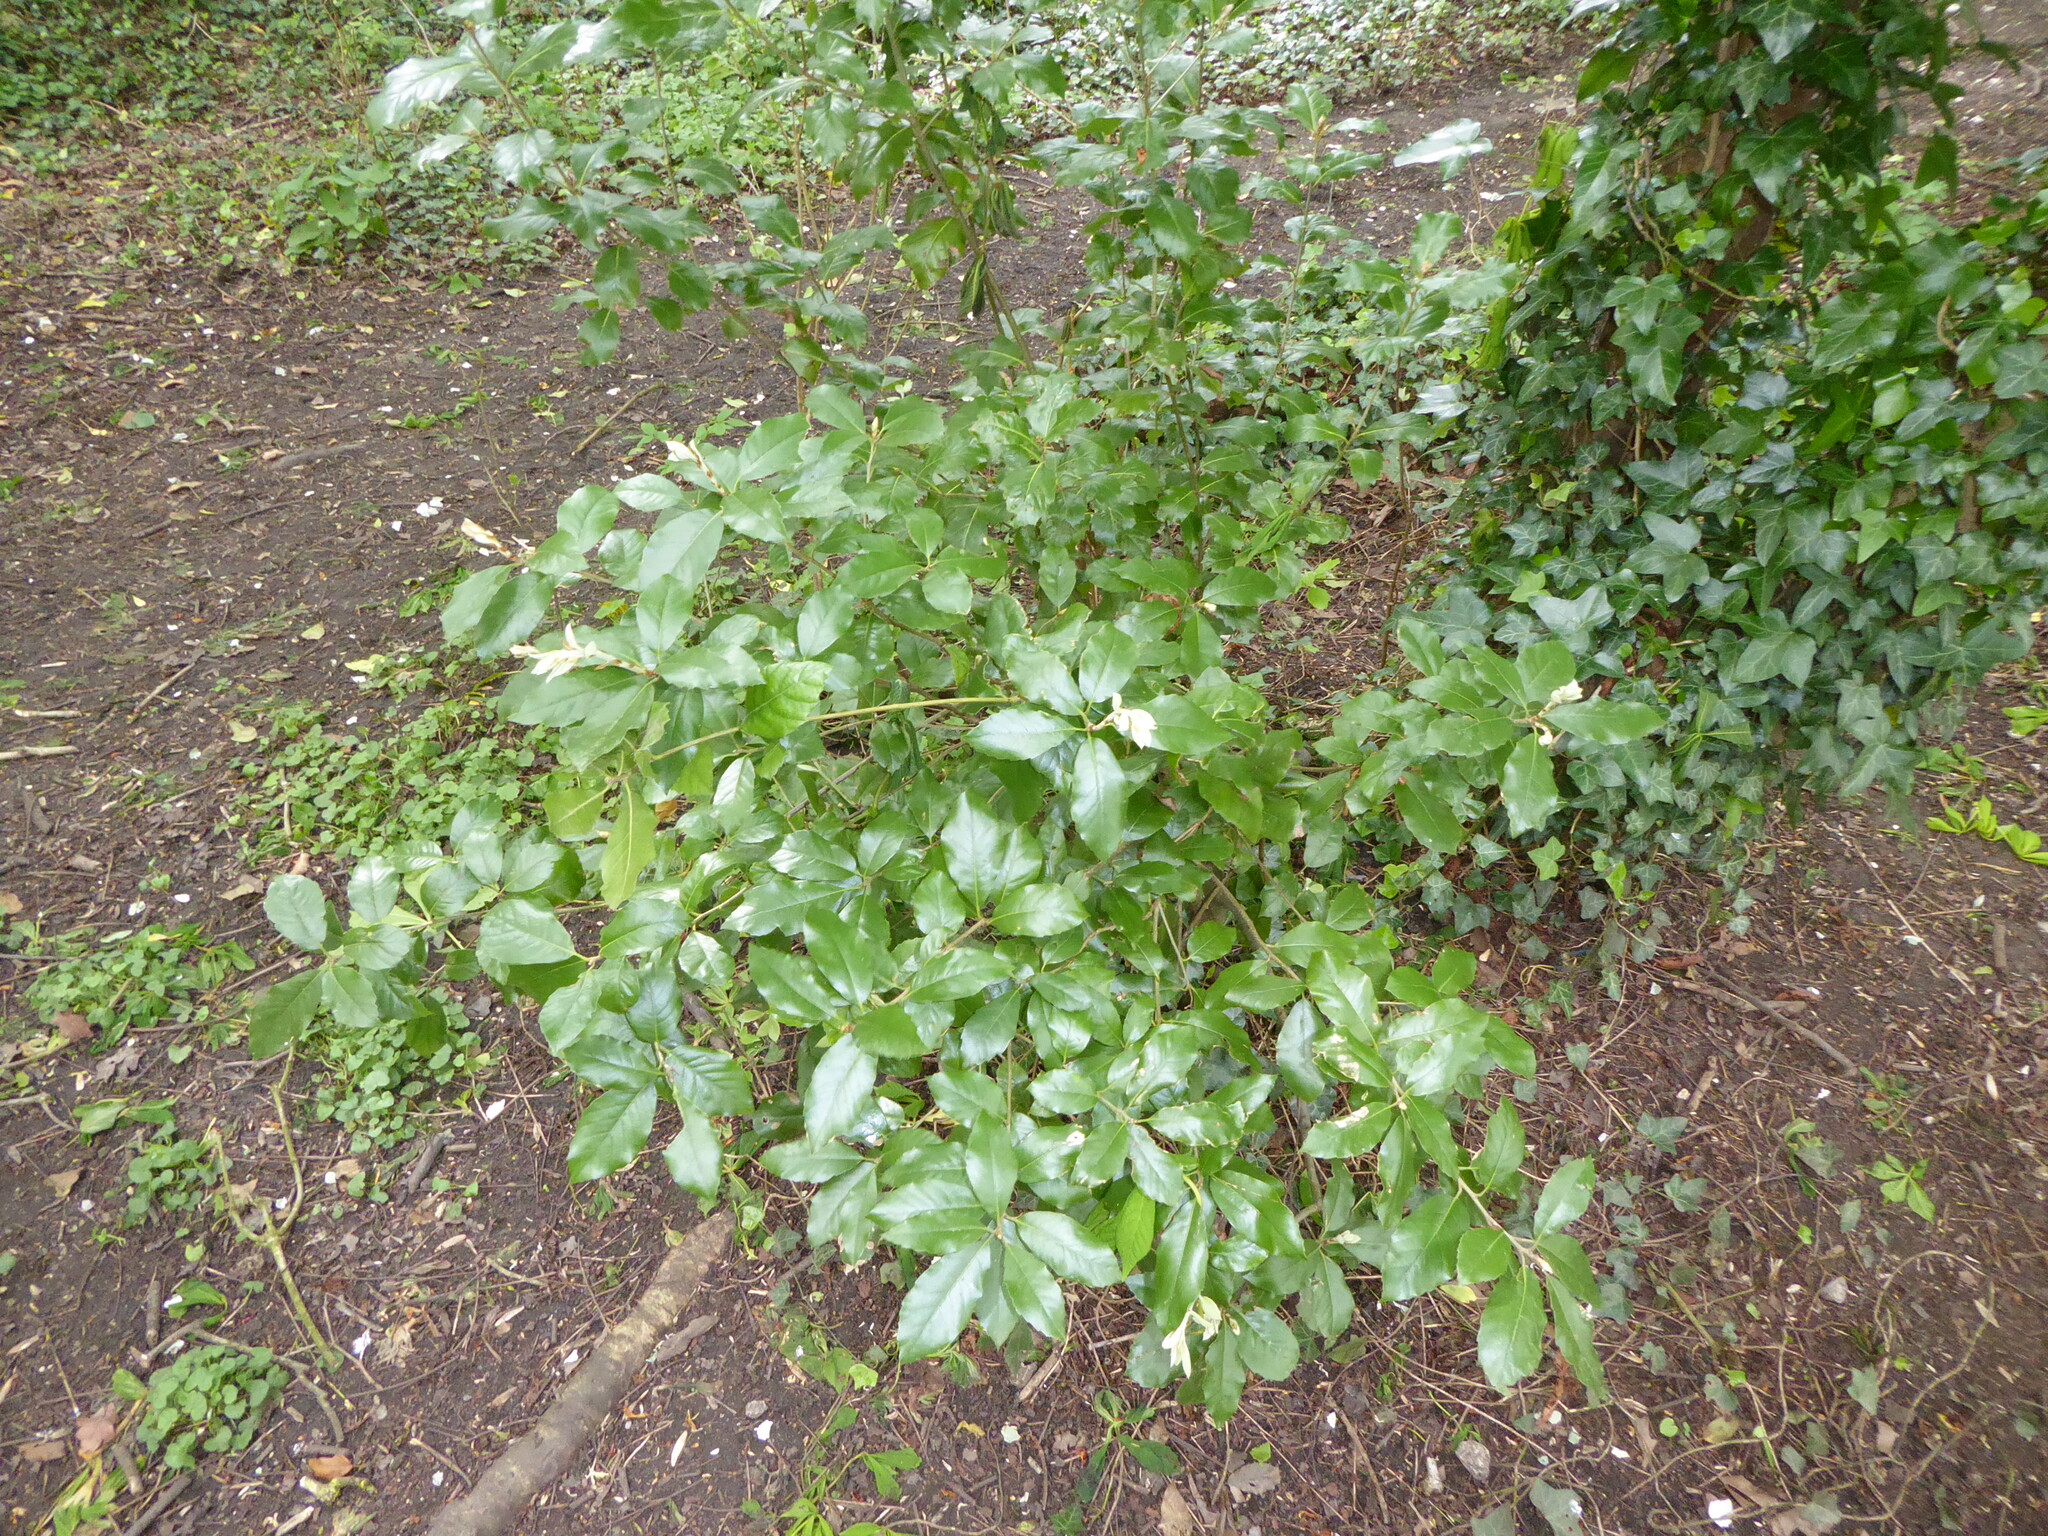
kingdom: Plantae
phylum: Tracheophyta
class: Magnoliopsida
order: Fagales
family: Fagaceae
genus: Quercus
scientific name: Quercus ilex
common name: Evergreen oak
